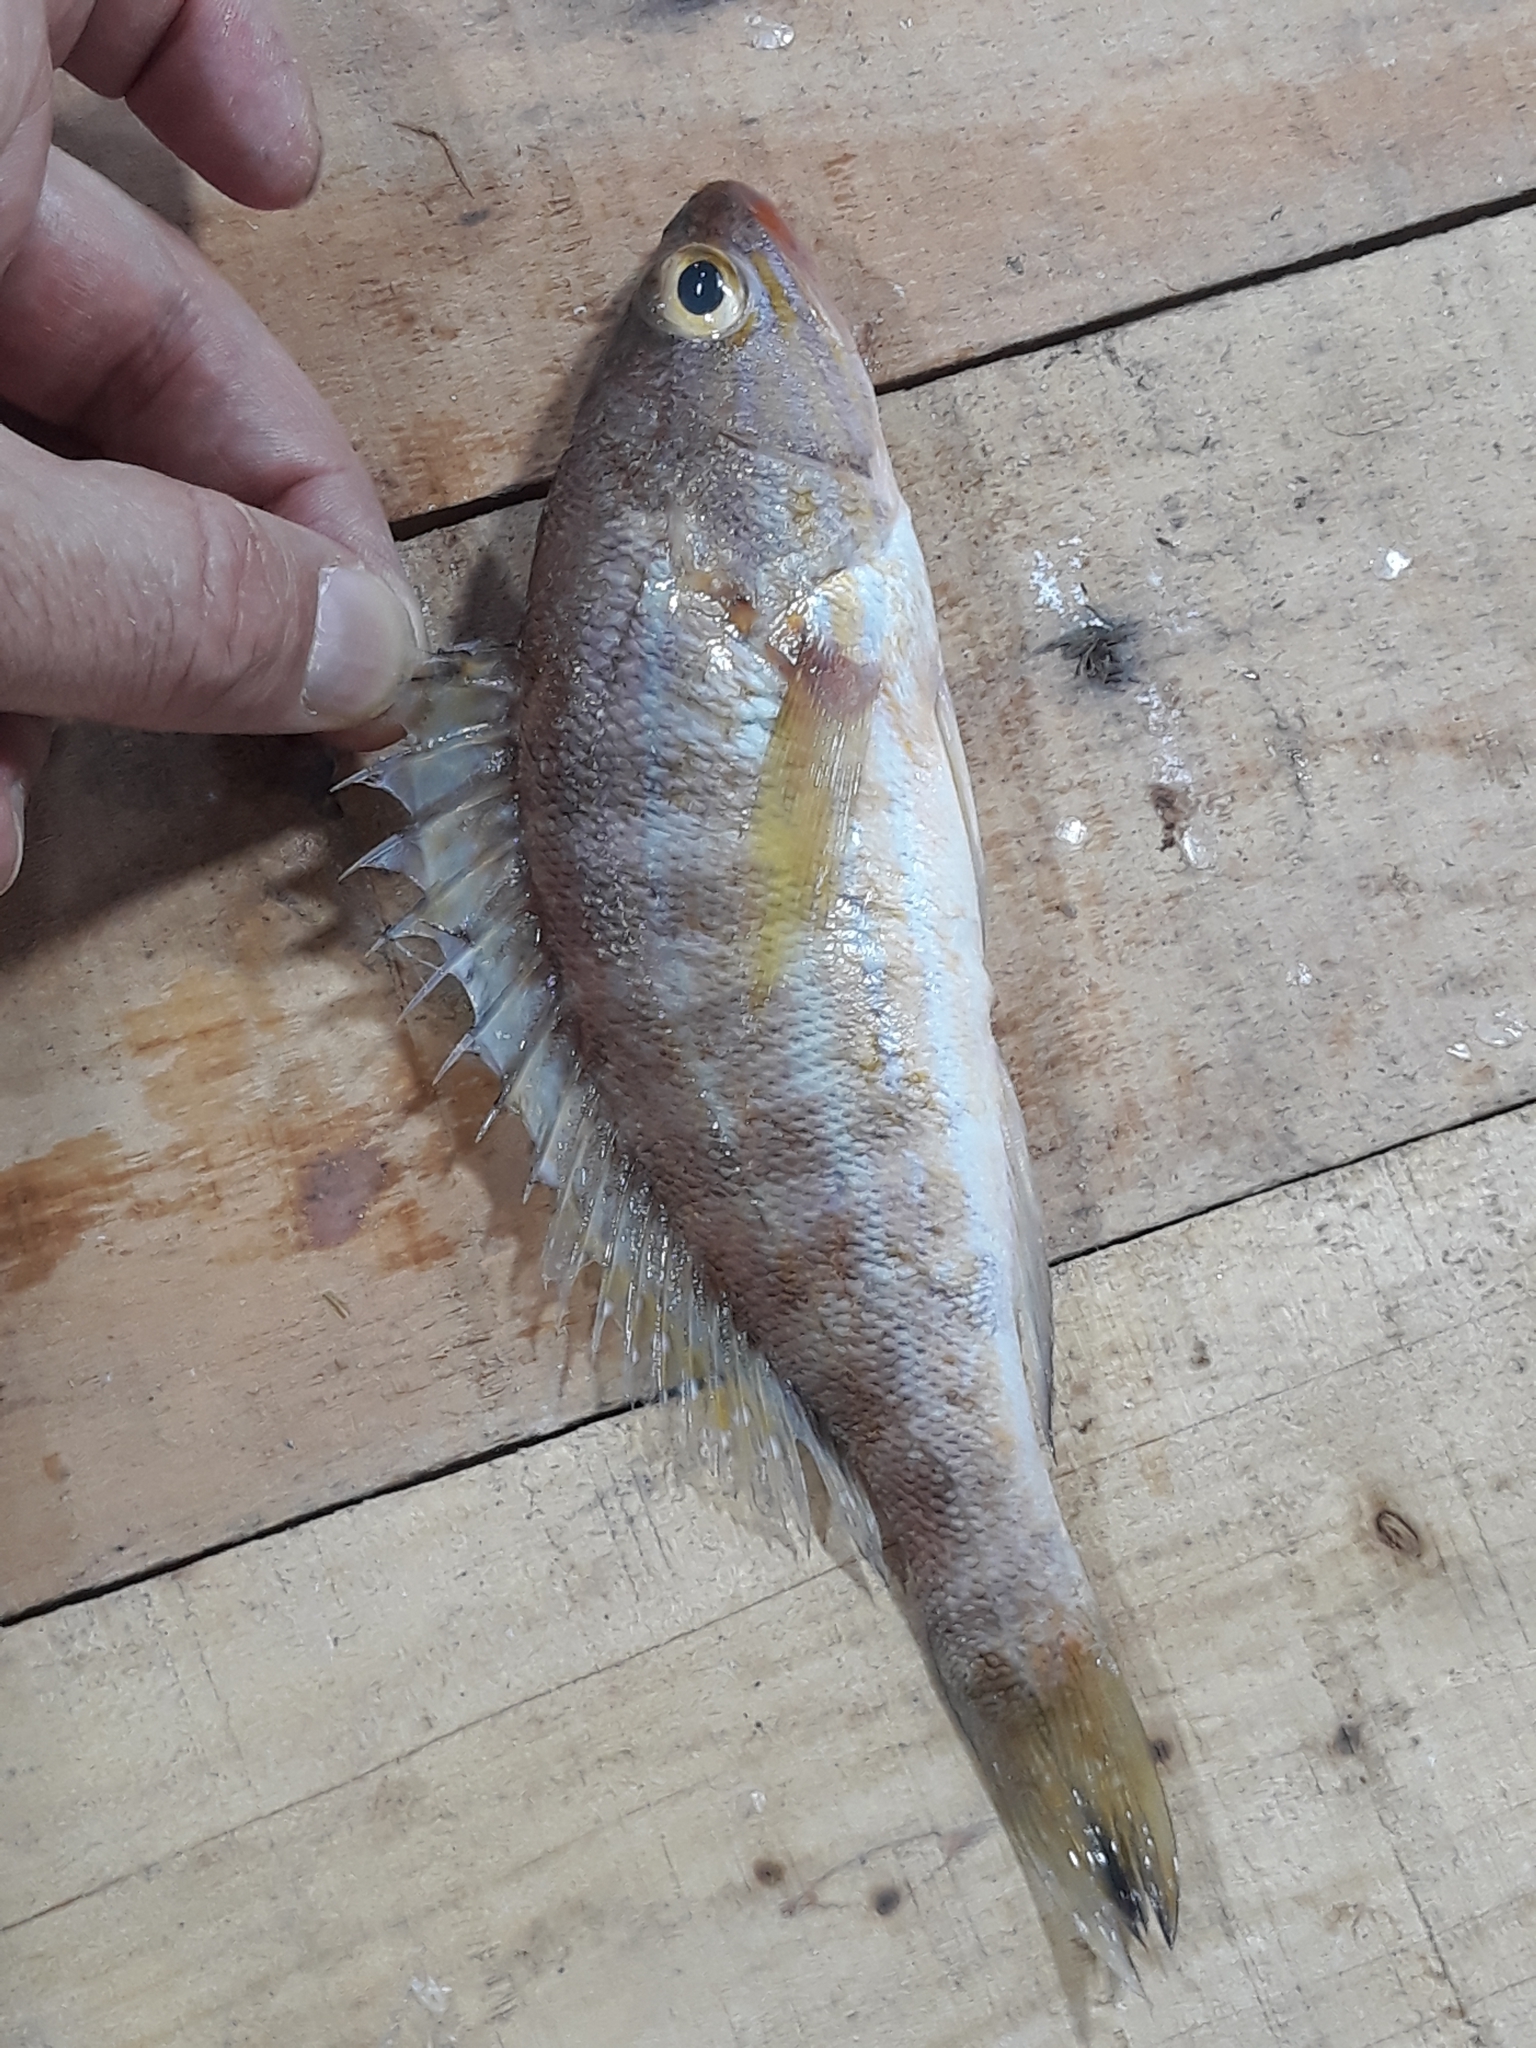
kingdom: Animalia
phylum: Chordata
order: Perciformes
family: Serranidae
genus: Serranus
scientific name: Serranus cabrilla
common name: Comber
